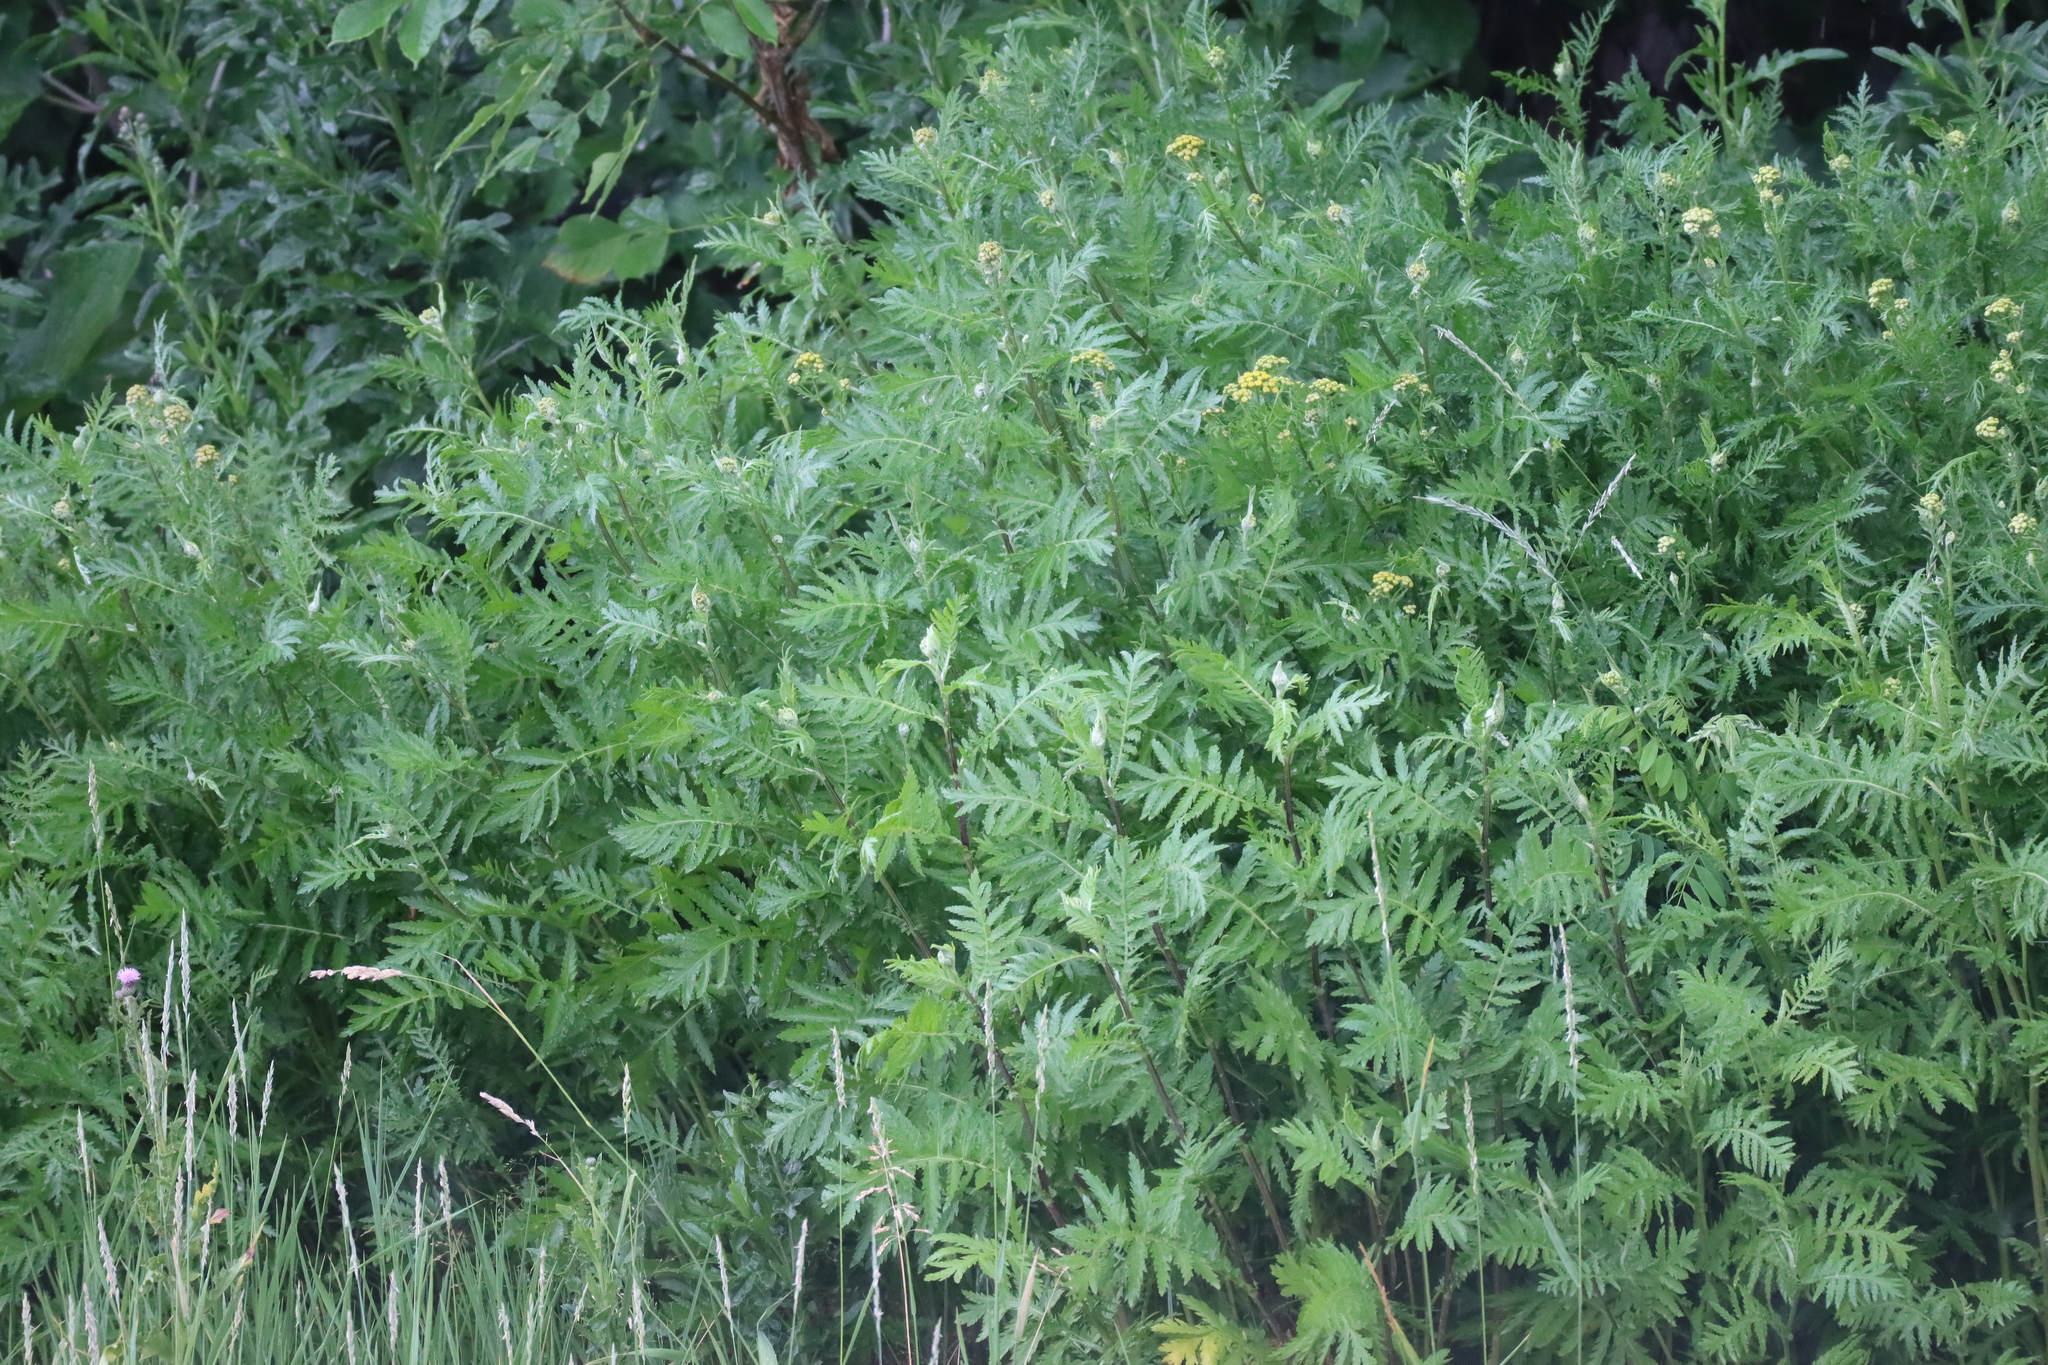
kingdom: Plantae
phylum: Tracheophyta
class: Magnoliopsida
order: Asterales
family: Asteraceae
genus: Tanacetum
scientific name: Tanacetum vulgare
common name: Common tansy
